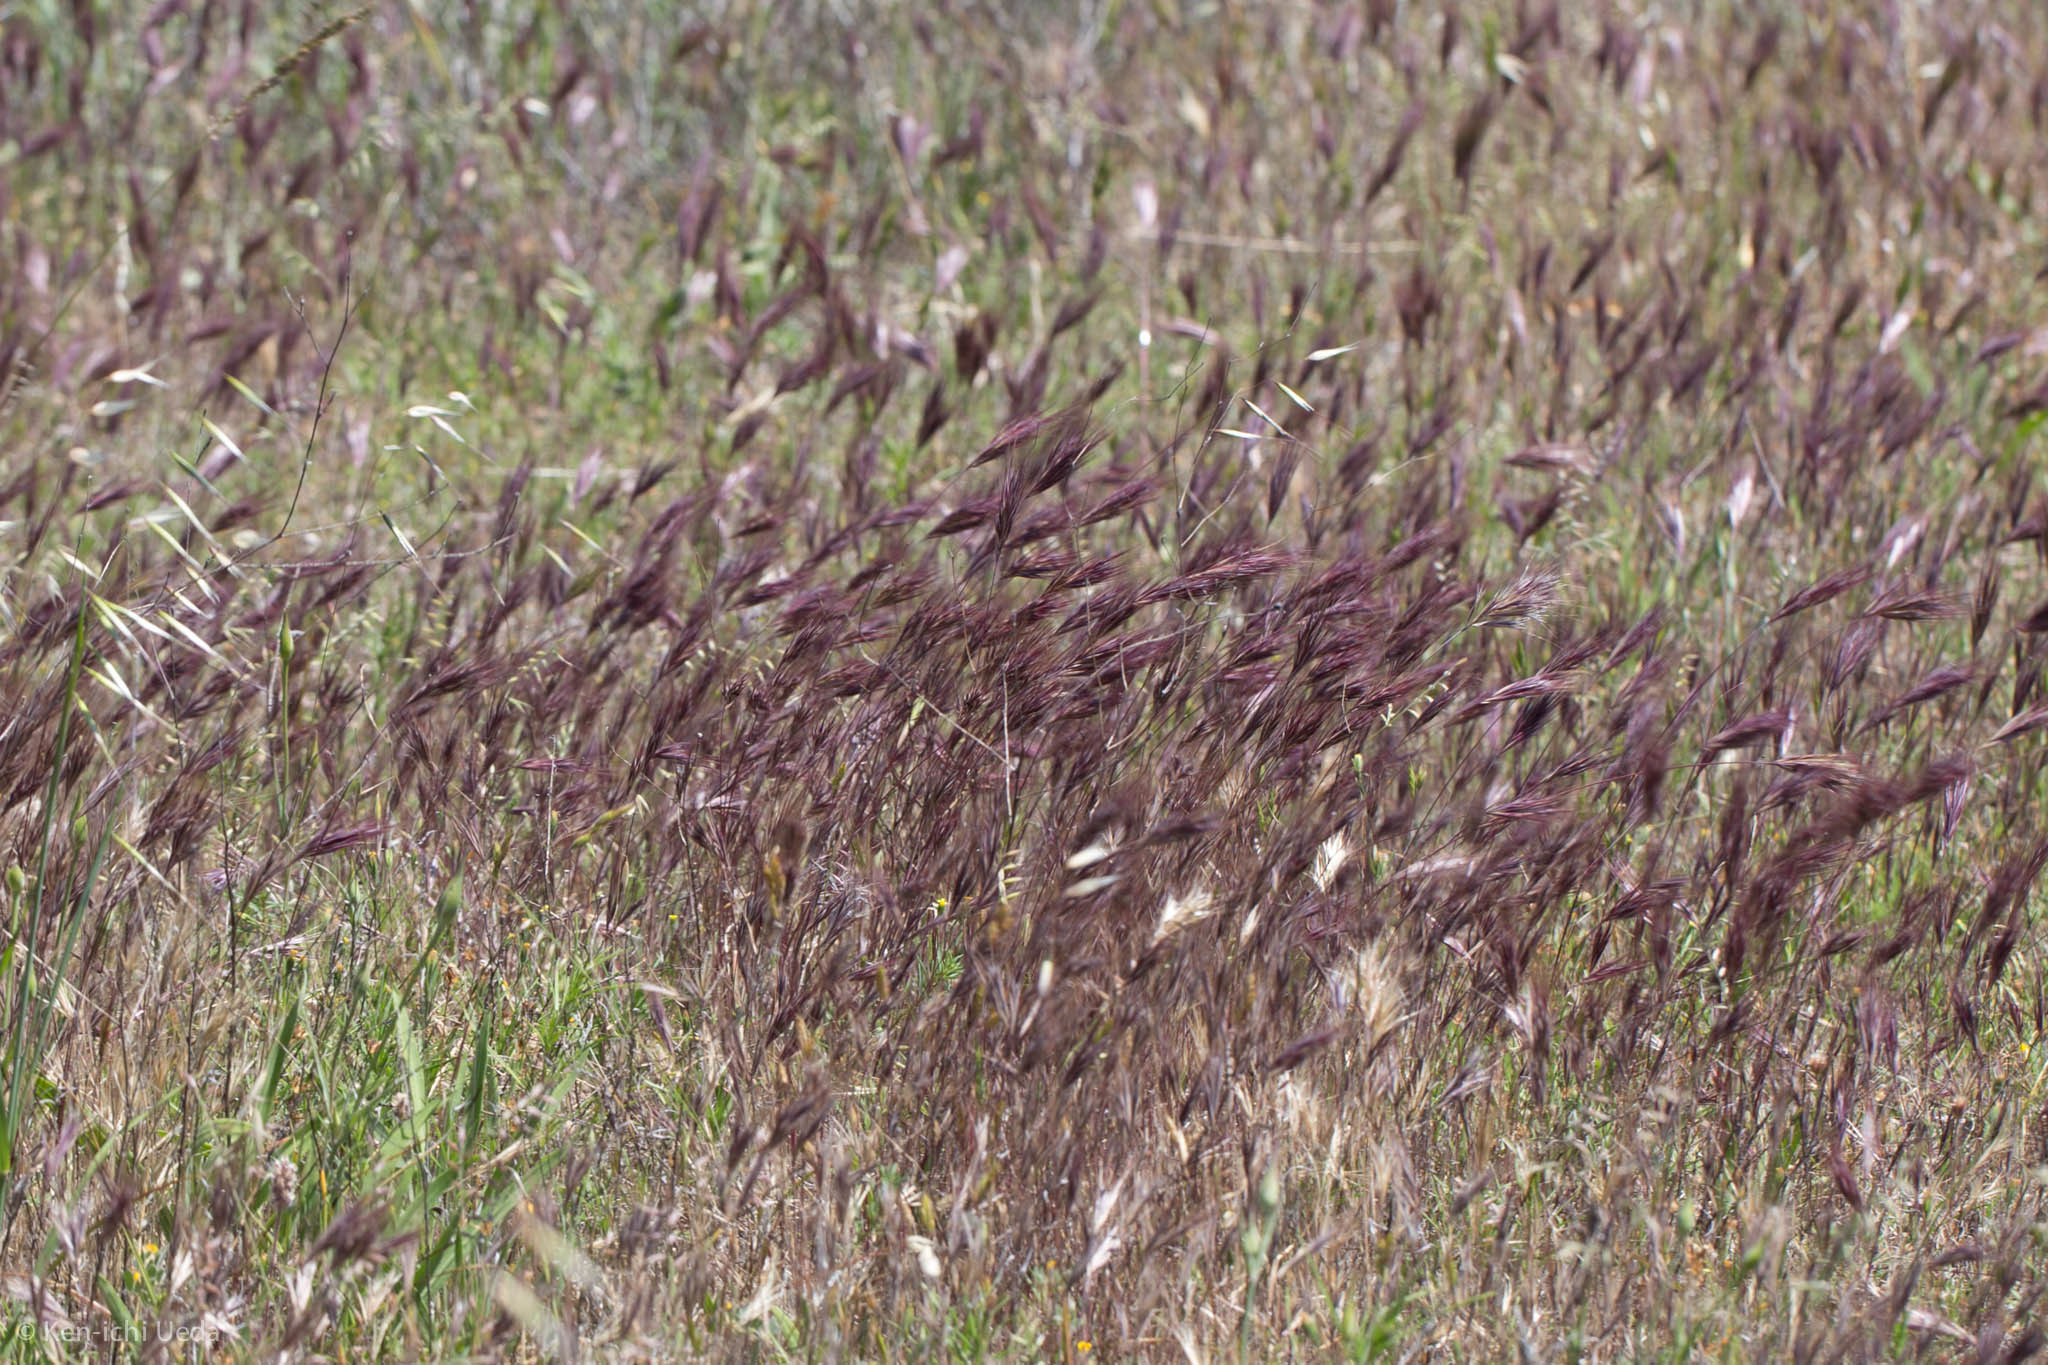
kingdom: Plantae
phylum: Tracheophyta
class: Liliopsida
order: Poales
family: Poaceae
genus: Bromus
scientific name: Bromus rubens
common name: Red brome
